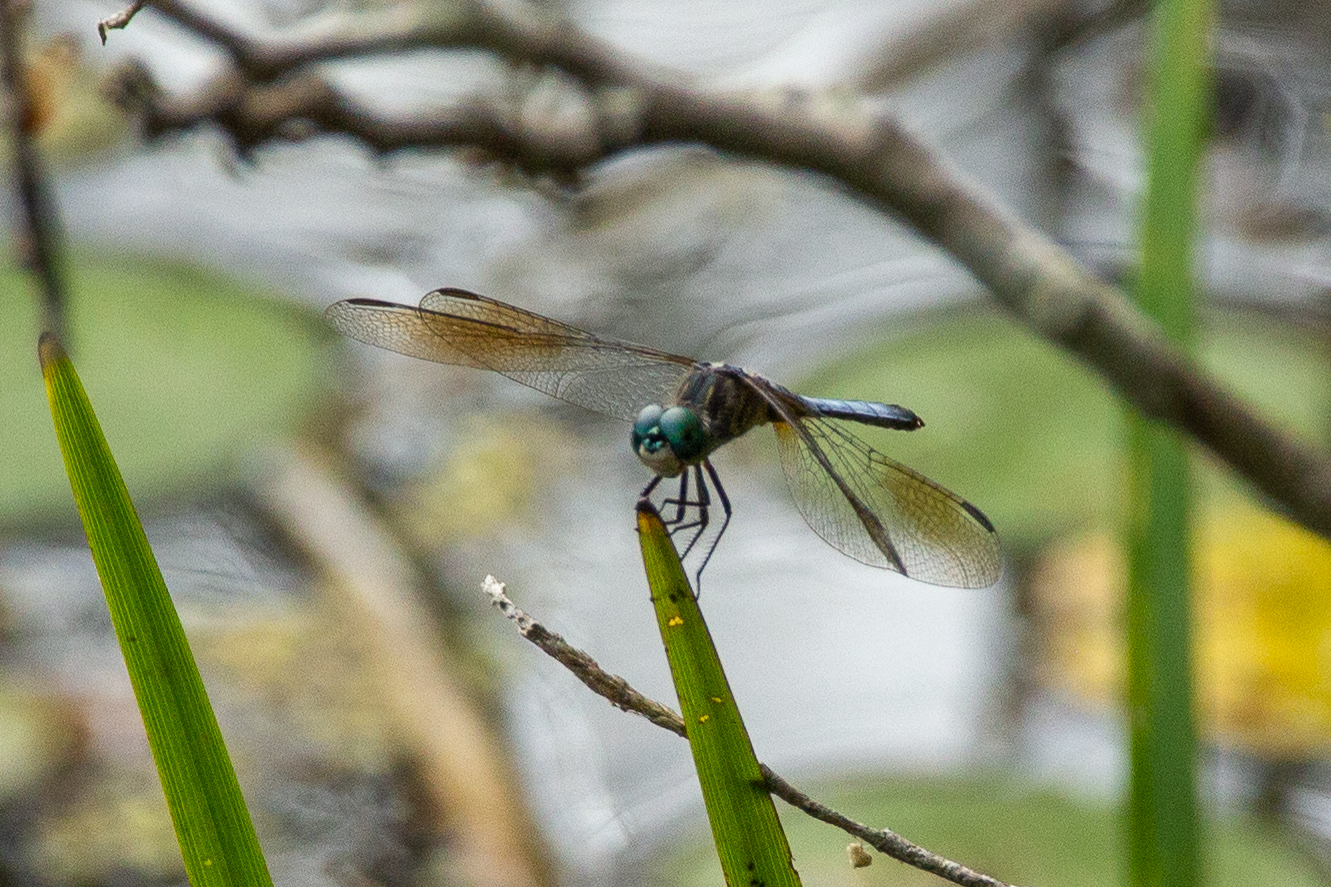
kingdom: Animalia
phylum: Arthropoda
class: Insecta
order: Odonata
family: Libellulidae
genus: Pachydiplax
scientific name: Pachydiplax longipennis
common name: Blue dasher
